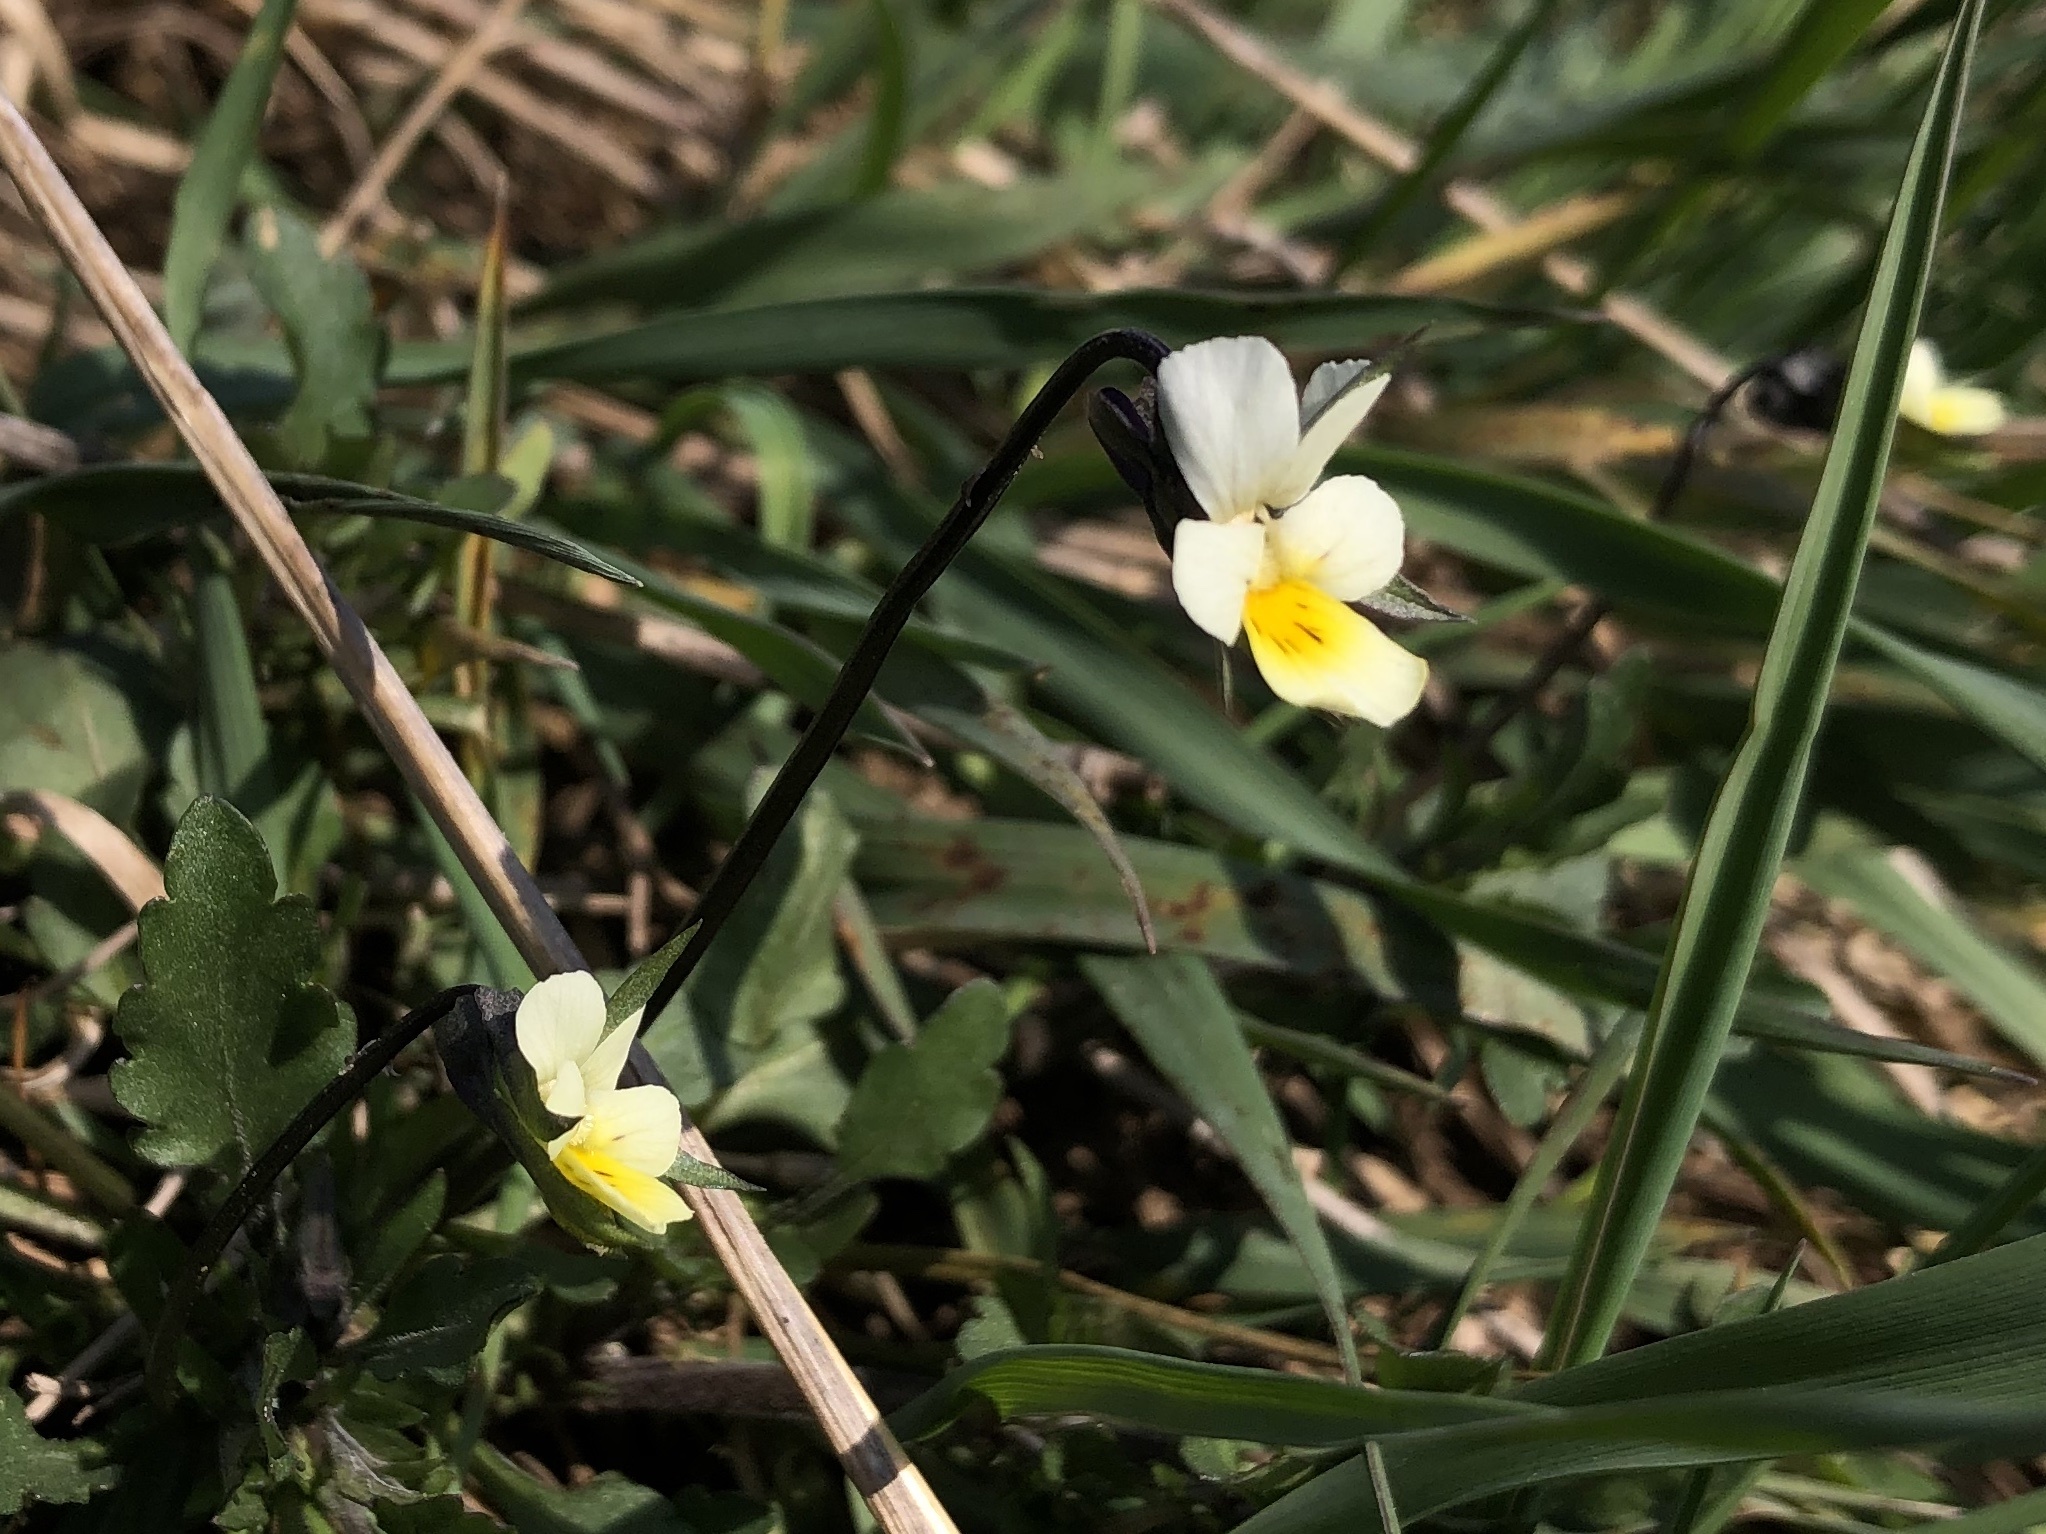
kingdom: Plantae
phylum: Tracheophyta
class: Magnoliopsida
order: Malpighiales
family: Violaceae
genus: Viola
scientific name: Viola arvensis
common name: Field pansy
